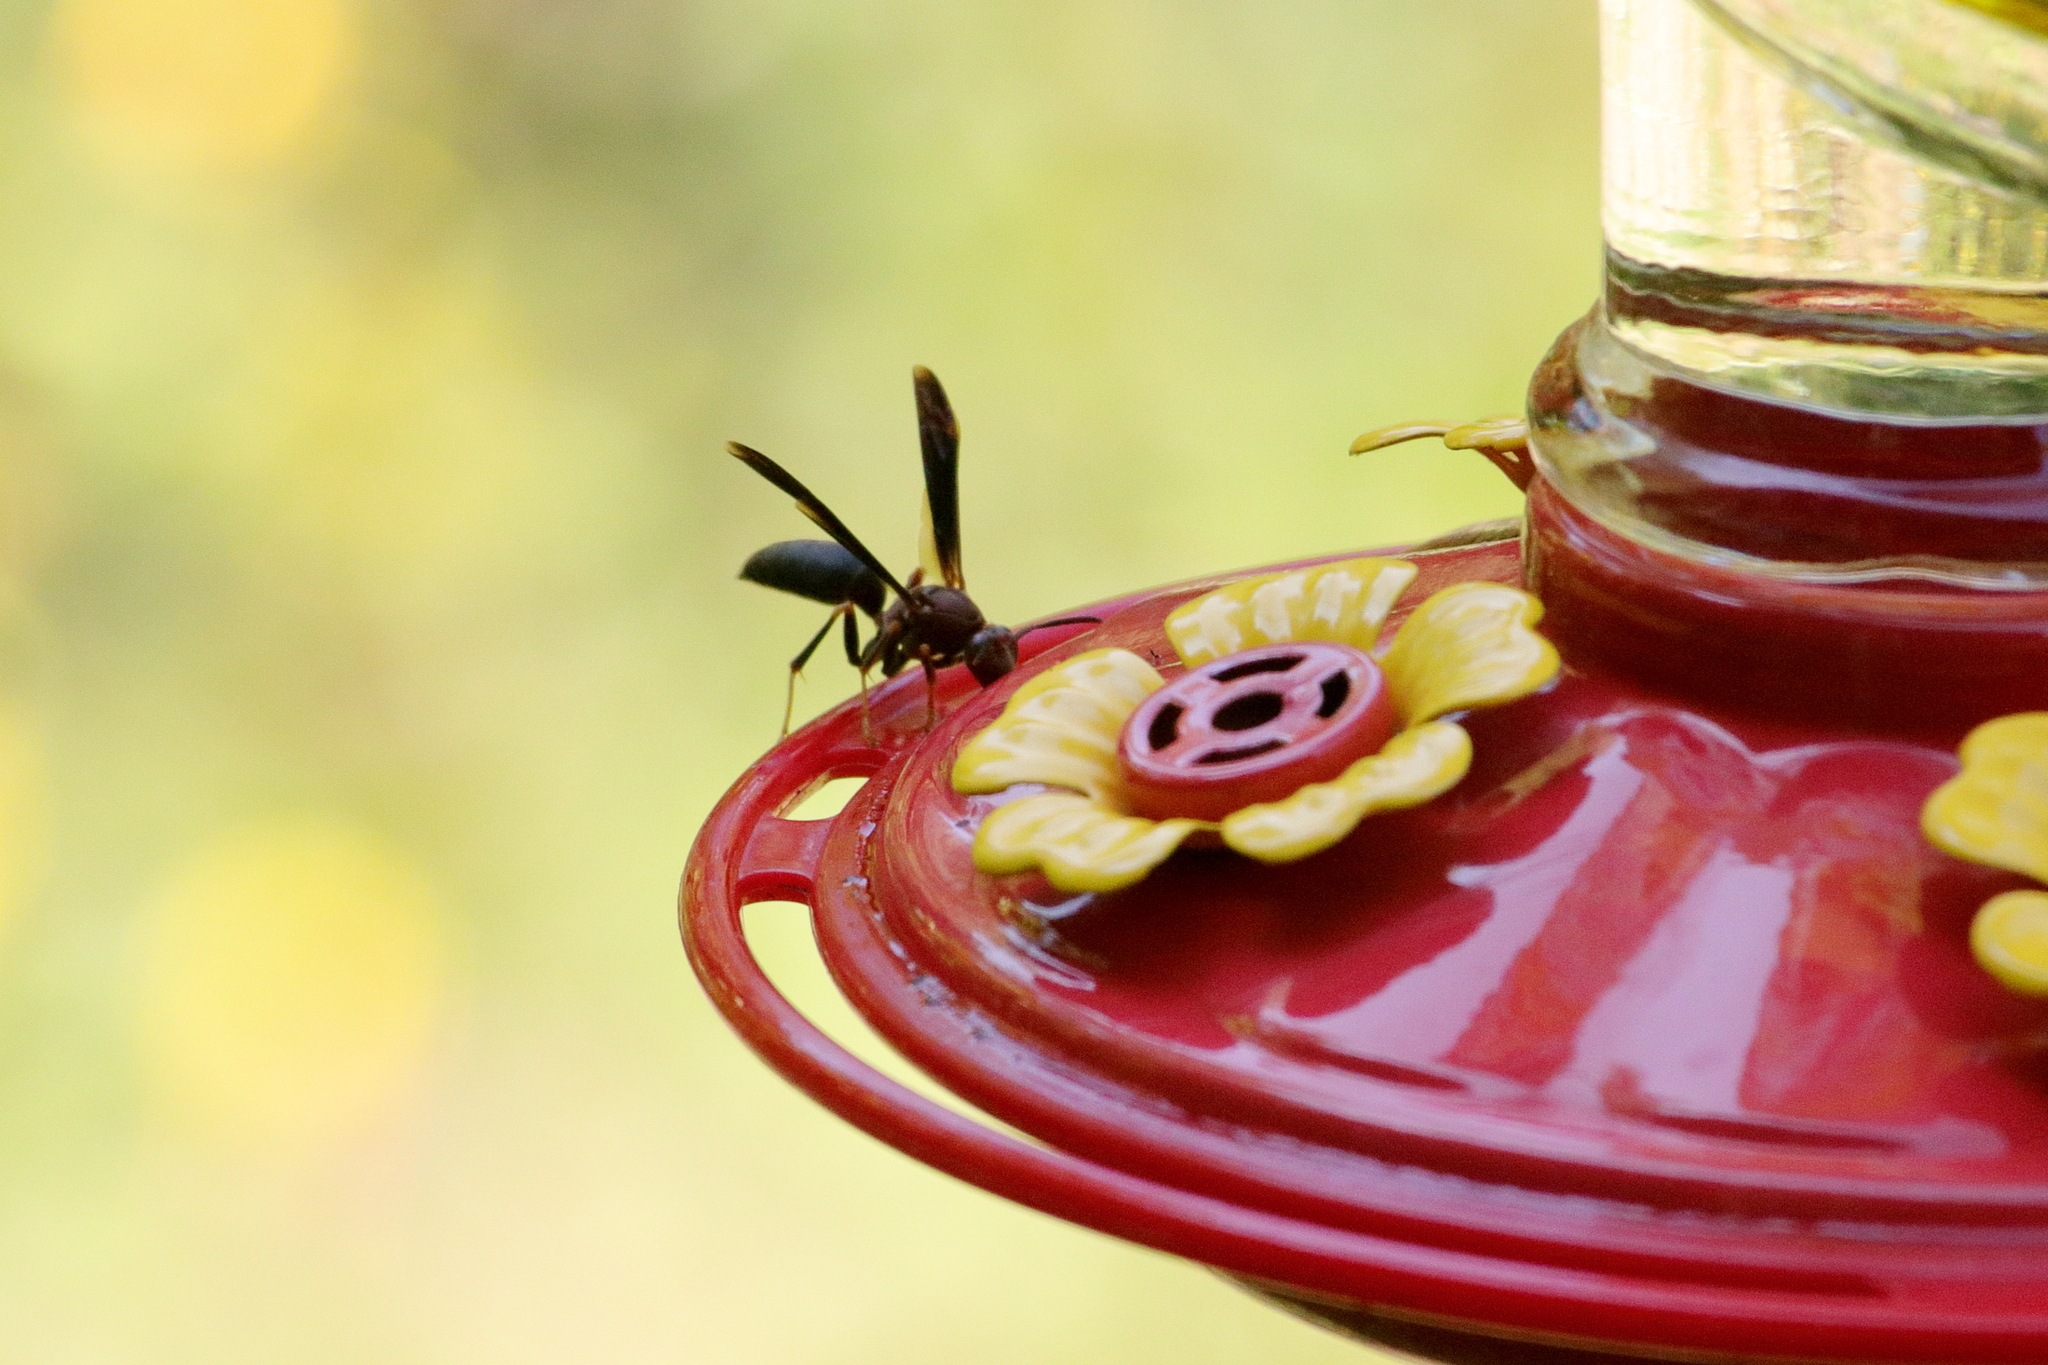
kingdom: Animalia
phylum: Arthropoda
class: Insecta
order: Hymenoptera
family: Eumenidae
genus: Polistes
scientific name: Polistes metricus
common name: Metric paper wasp
